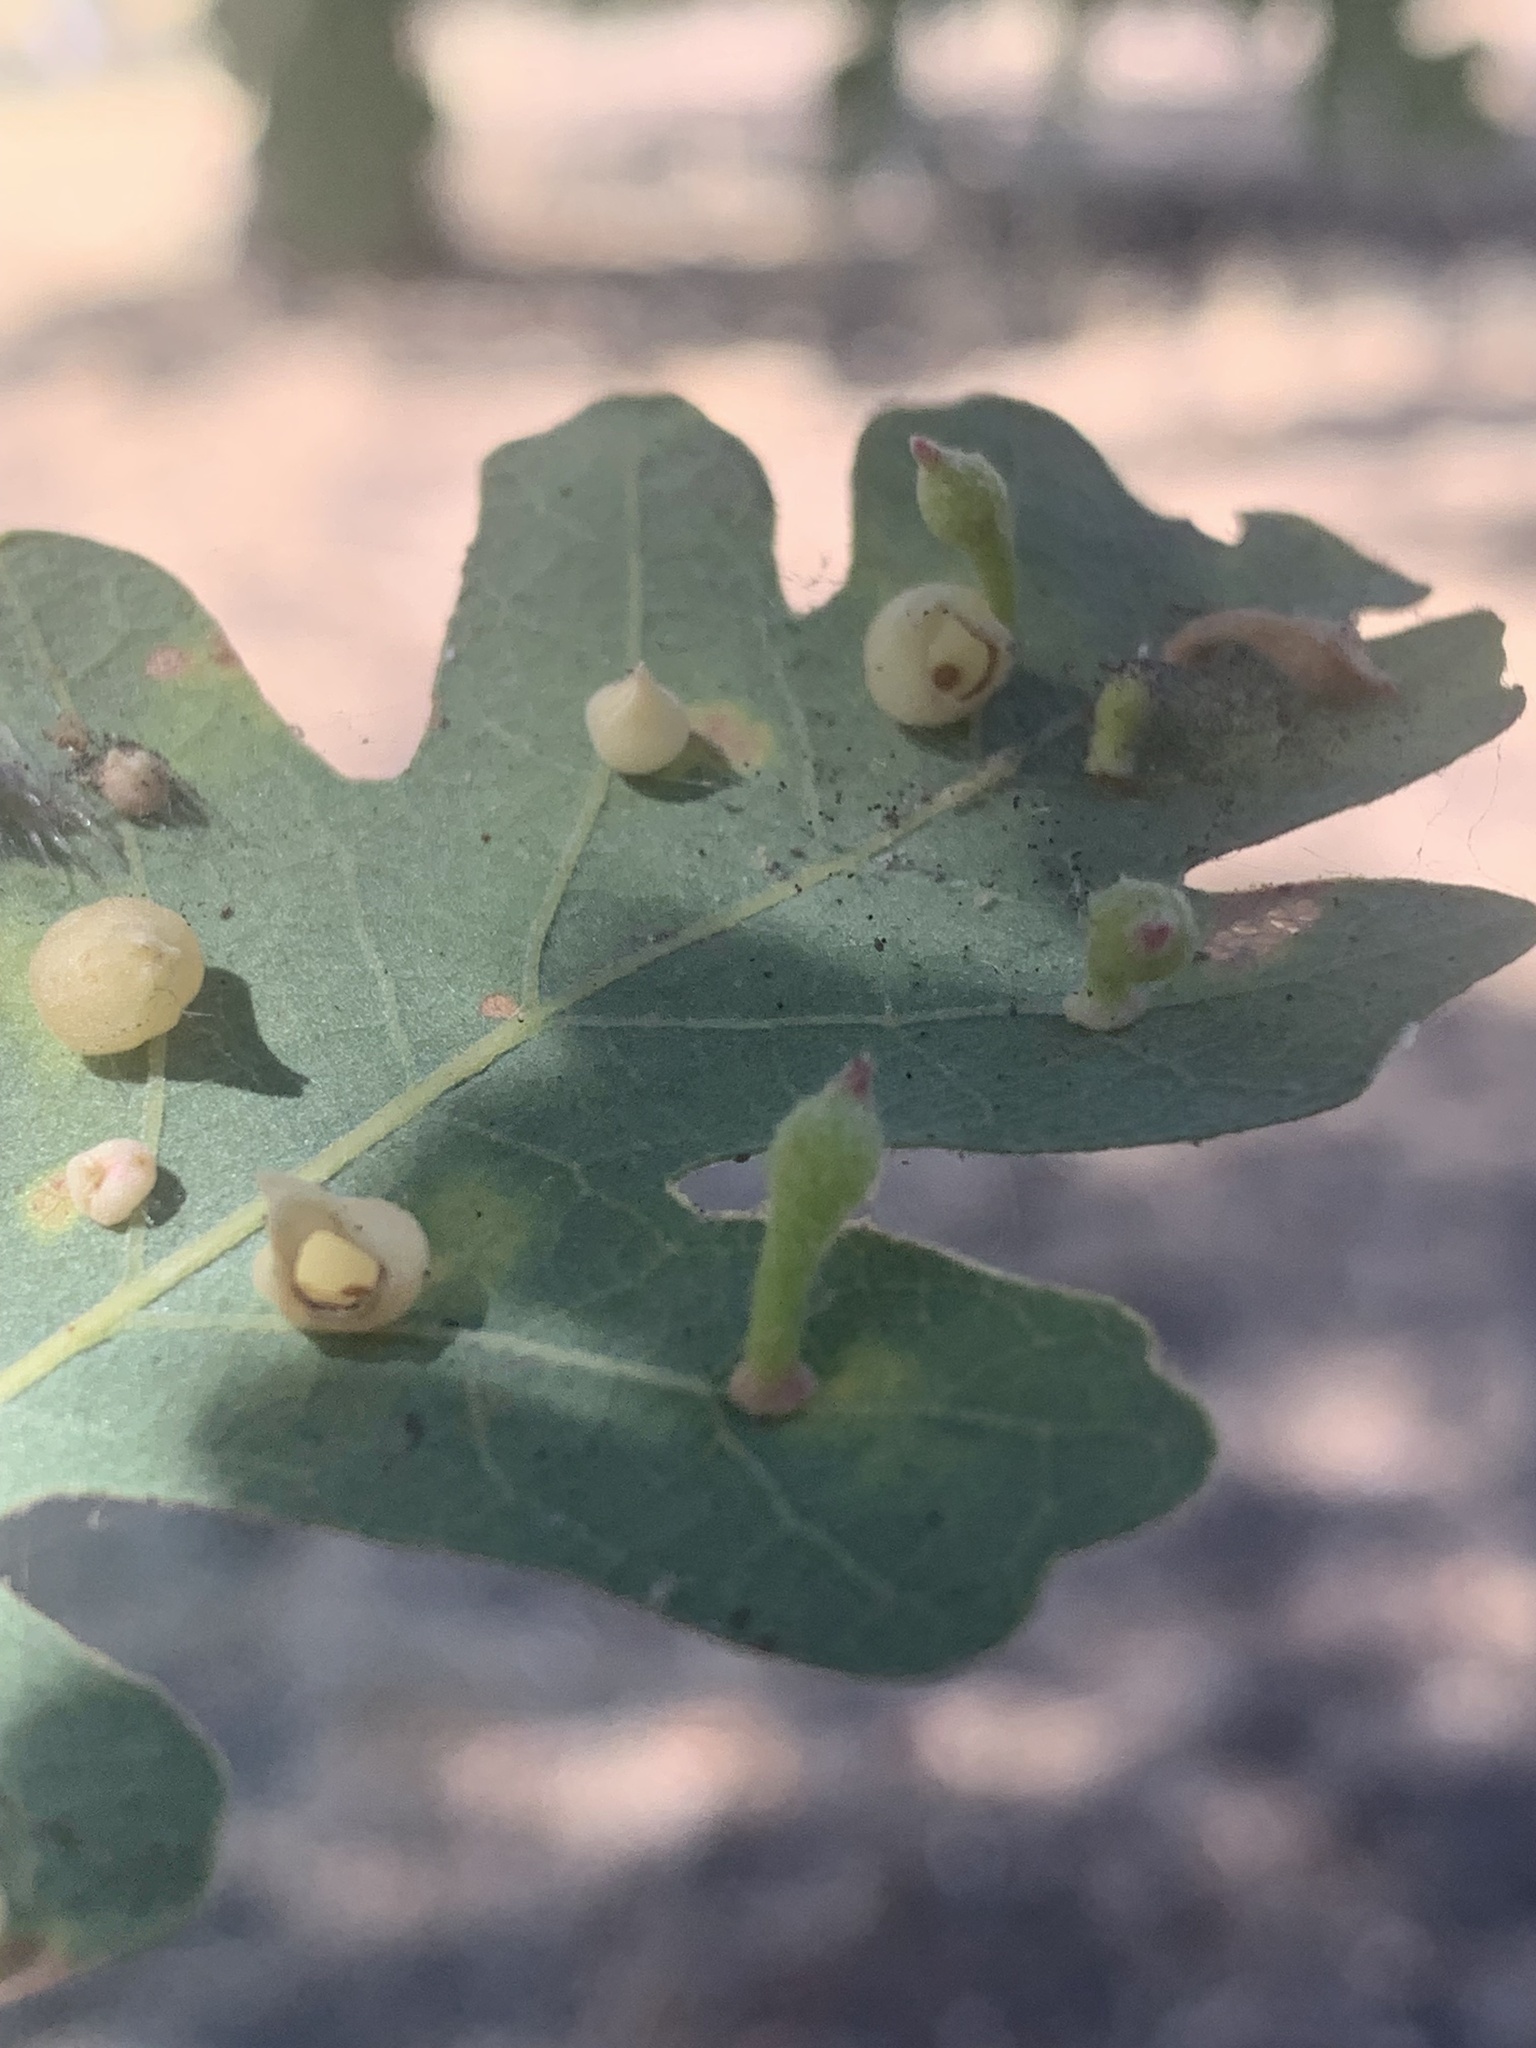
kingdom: Animalia
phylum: Arthropoda
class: Insecta
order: Hymenoptera
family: Cynipidae
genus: Atrusca
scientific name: Atrusca
